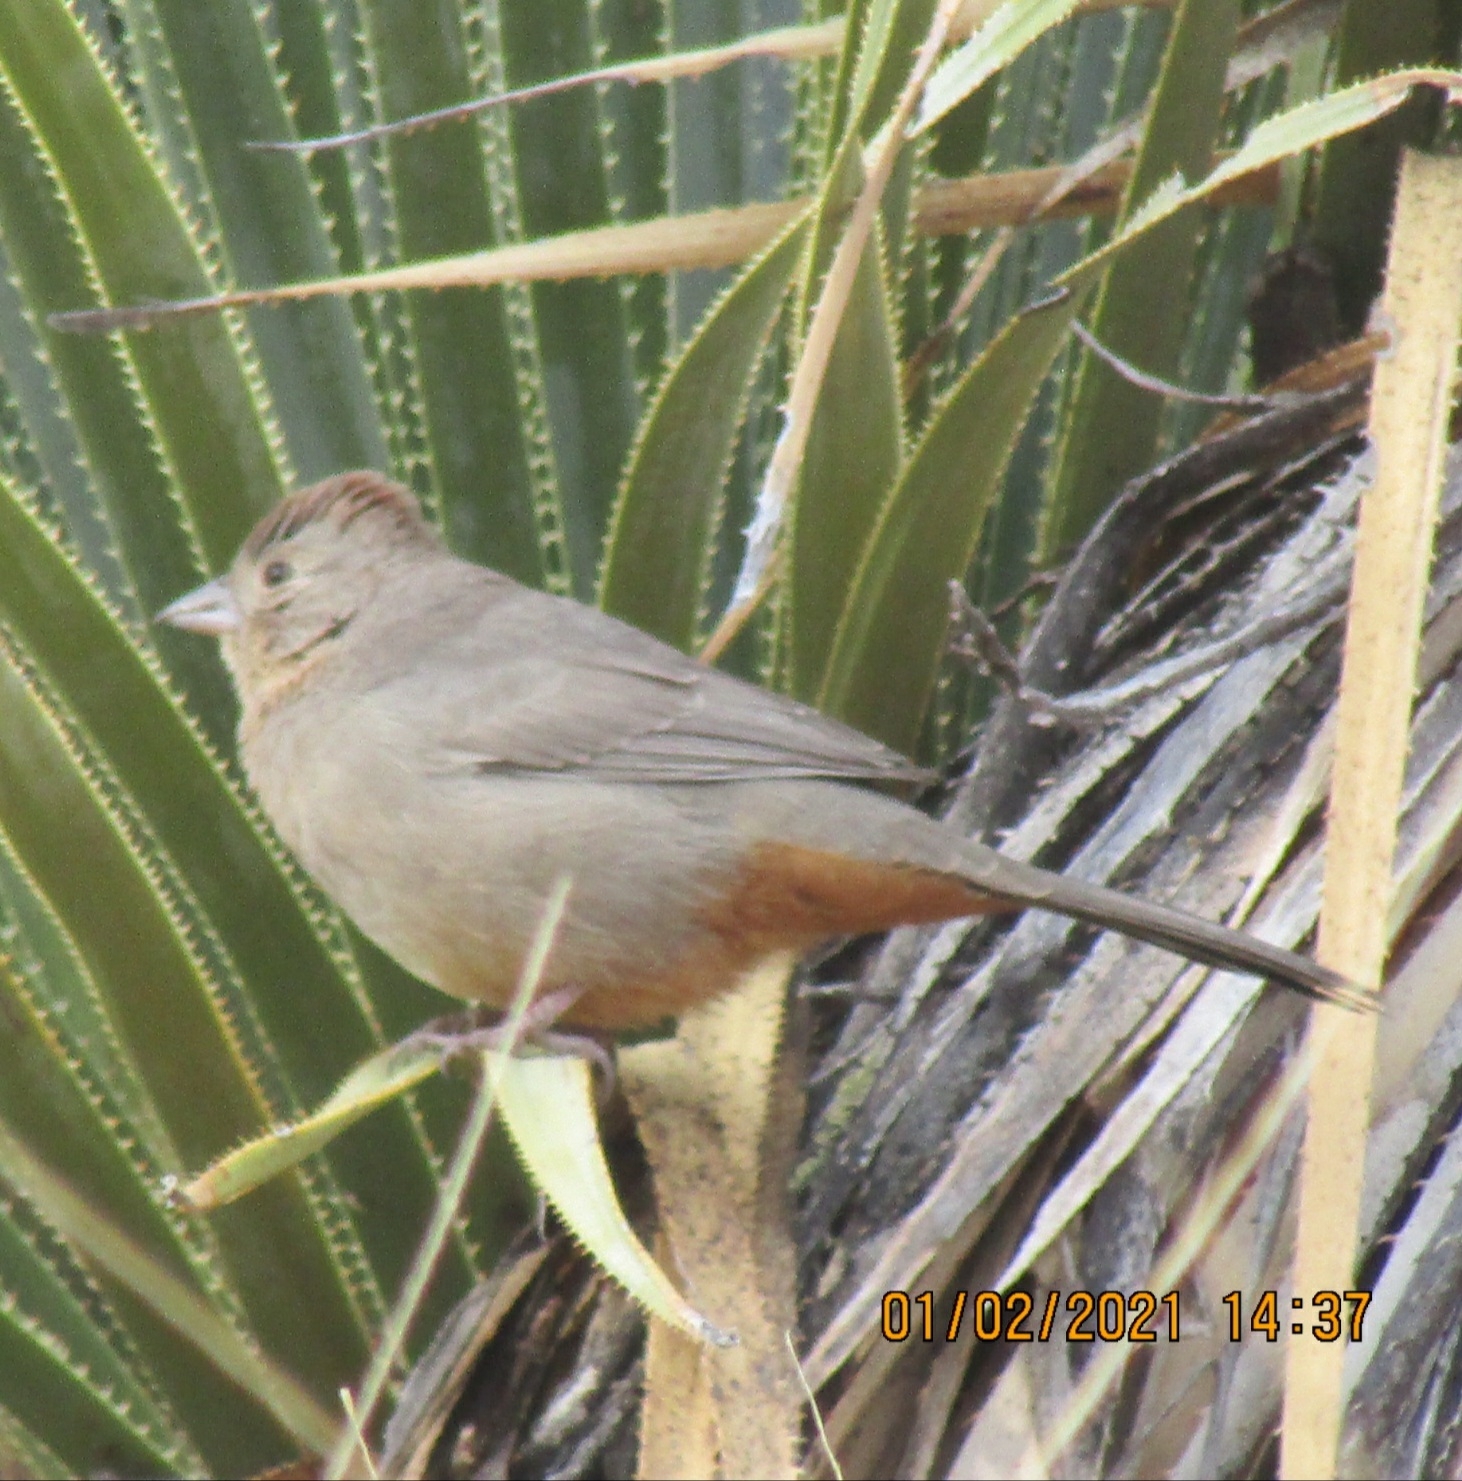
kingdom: Animalia
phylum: Chordata
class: Aves
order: Passeriformes
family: Passerellidae
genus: Melozone
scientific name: Melozone fusca
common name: Canyon towhee
